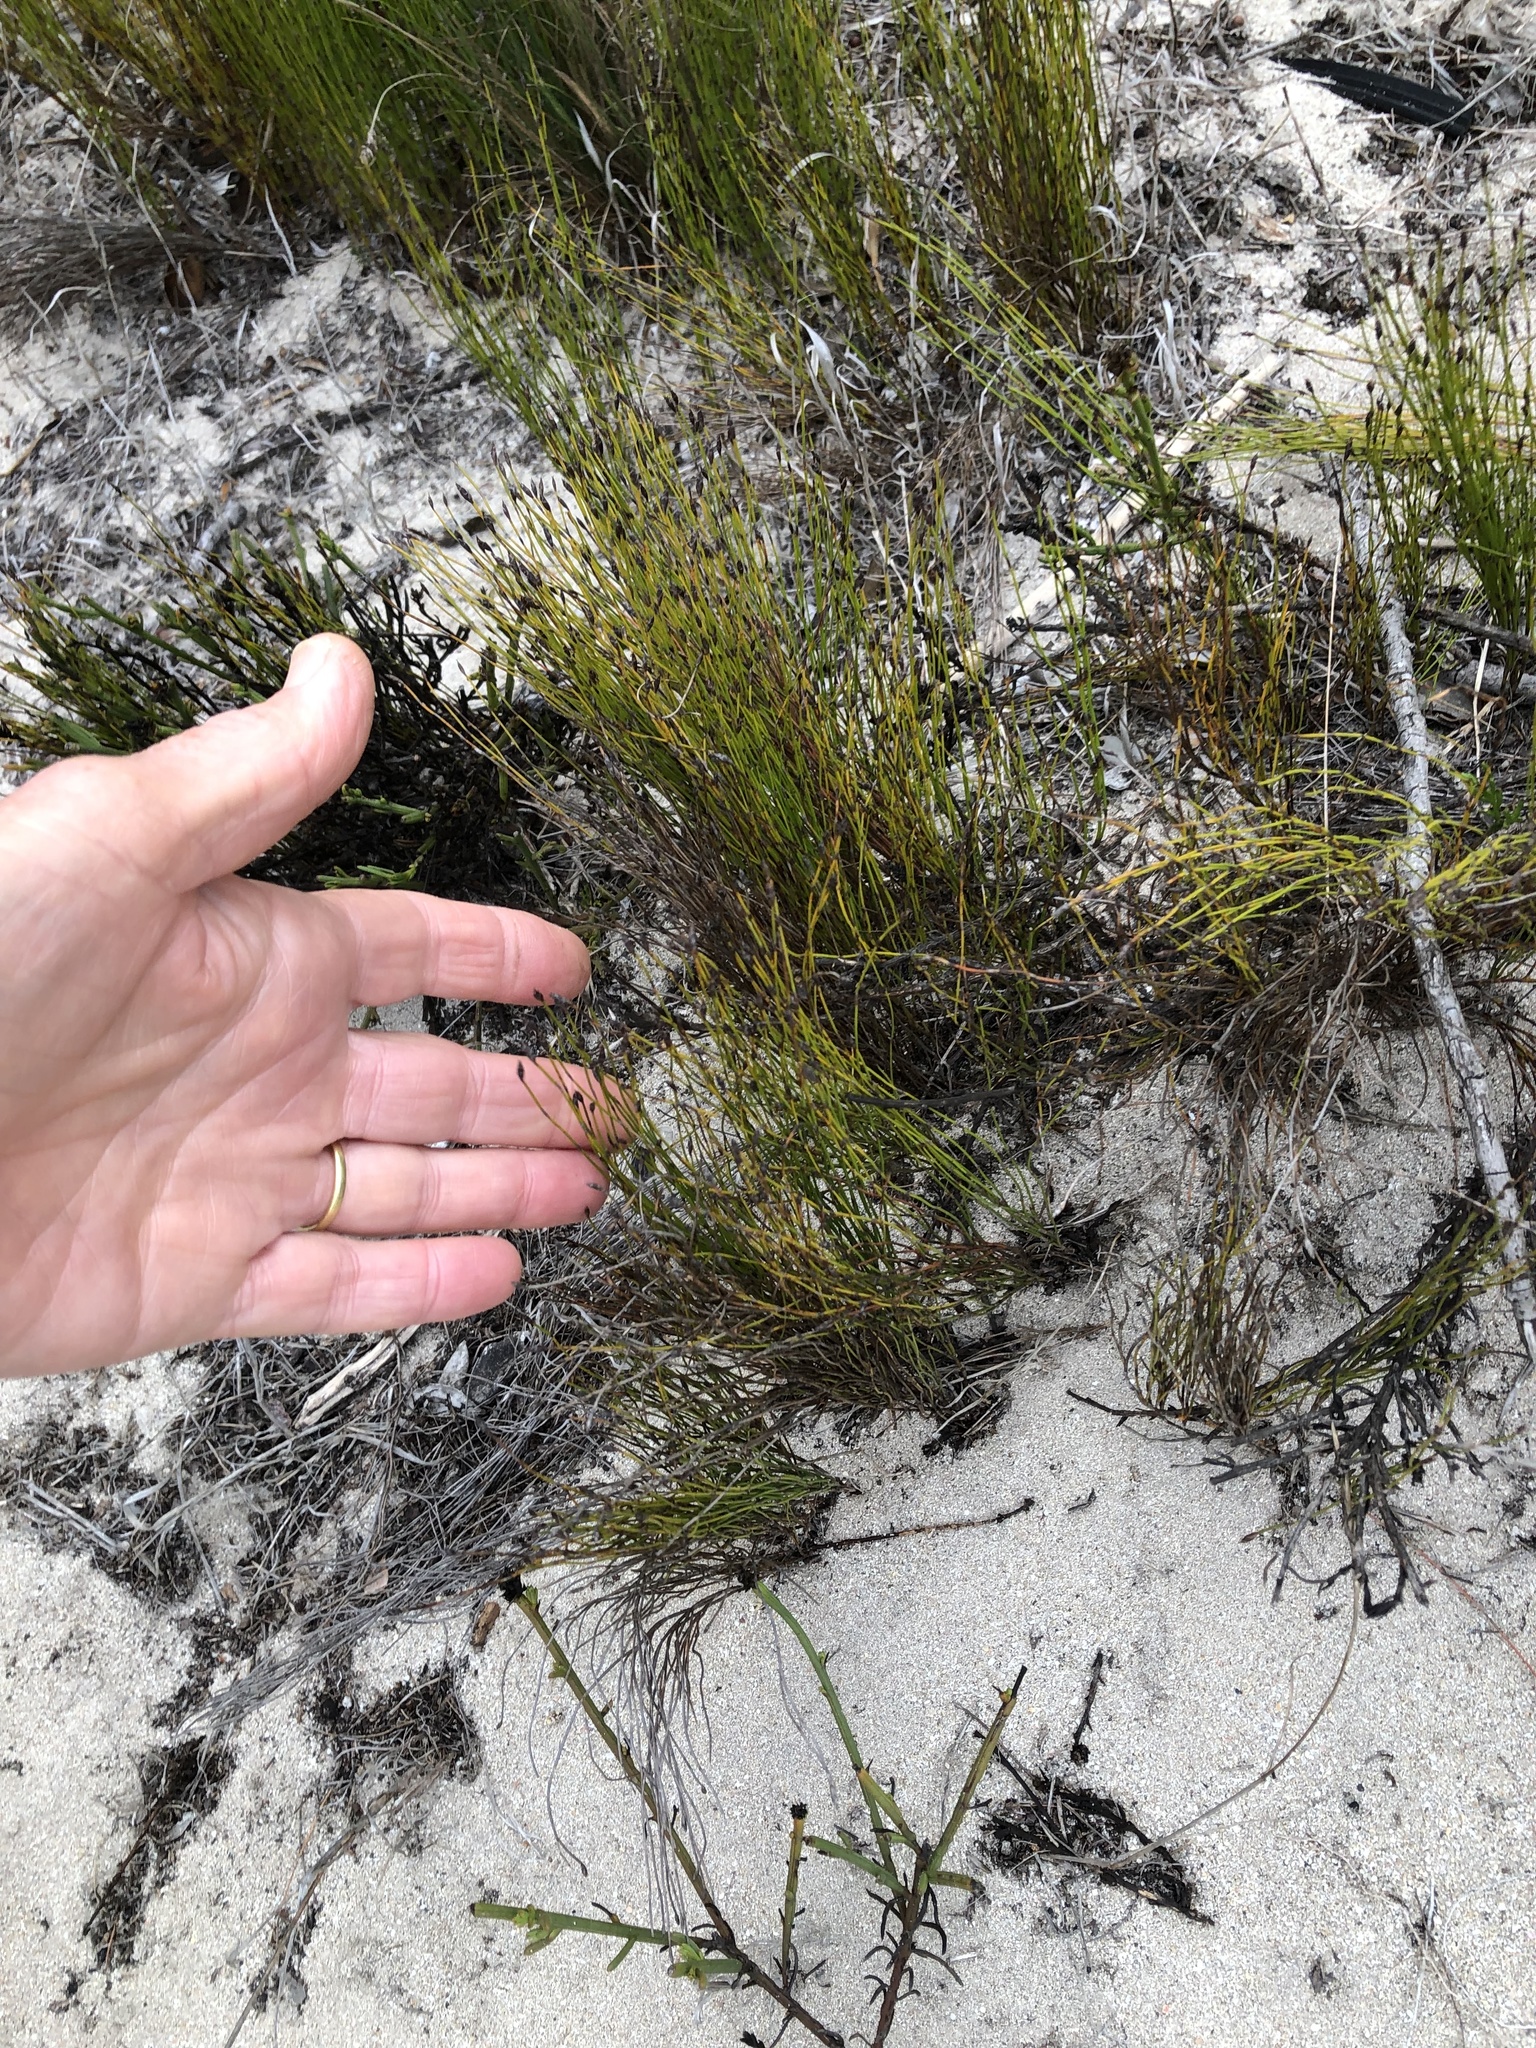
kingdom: Plantae
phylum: Tracheophyta
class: Liliopsida
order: Poales
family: Restionaceae
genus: Restio
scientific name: Restio eleocharis
